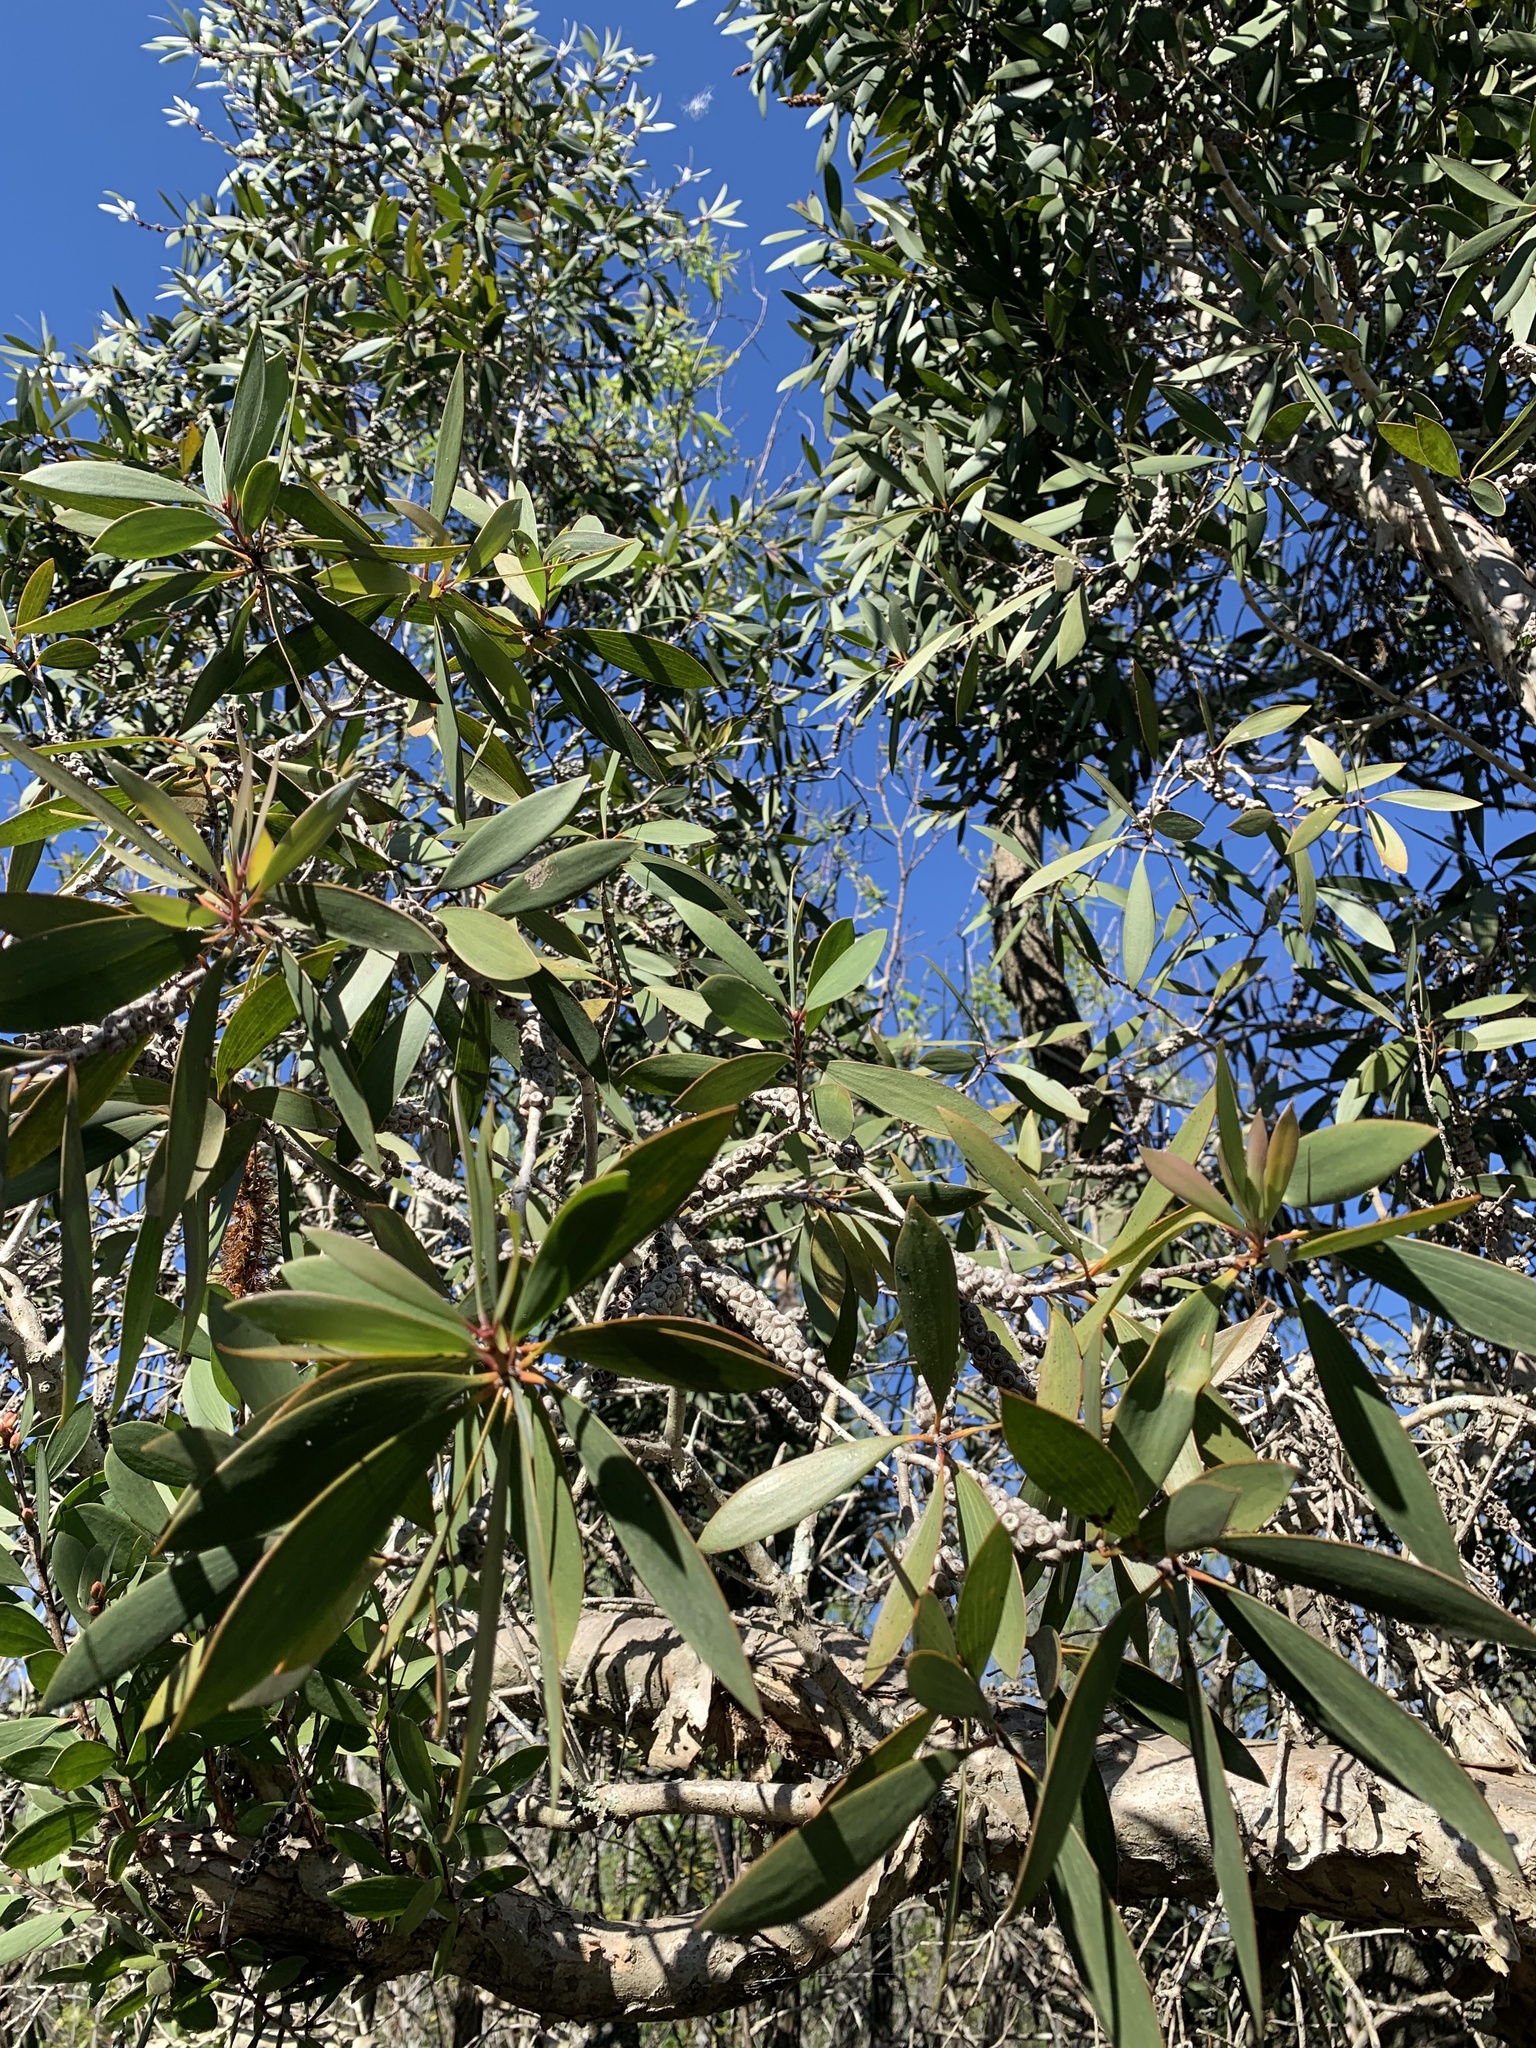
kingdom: Plantae
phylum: Tracheophyta
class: Magnoliopsida
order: Myrtales
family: Myrtaceae
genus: Melaleuca
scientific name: Melaleuca quinquenervia
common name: Punktree
